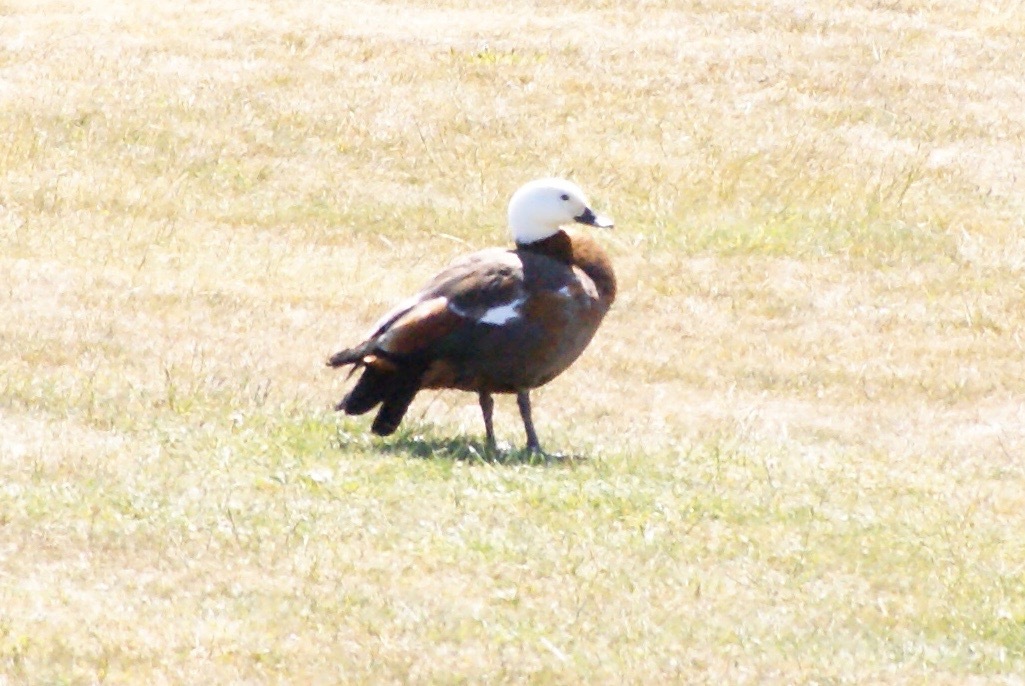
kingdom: Animalia
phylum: Chordata
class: Aves
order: Anseriformes
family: Anatidae
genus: Tadorna
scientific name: Tadorna variegata
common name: Paradise shelduck
